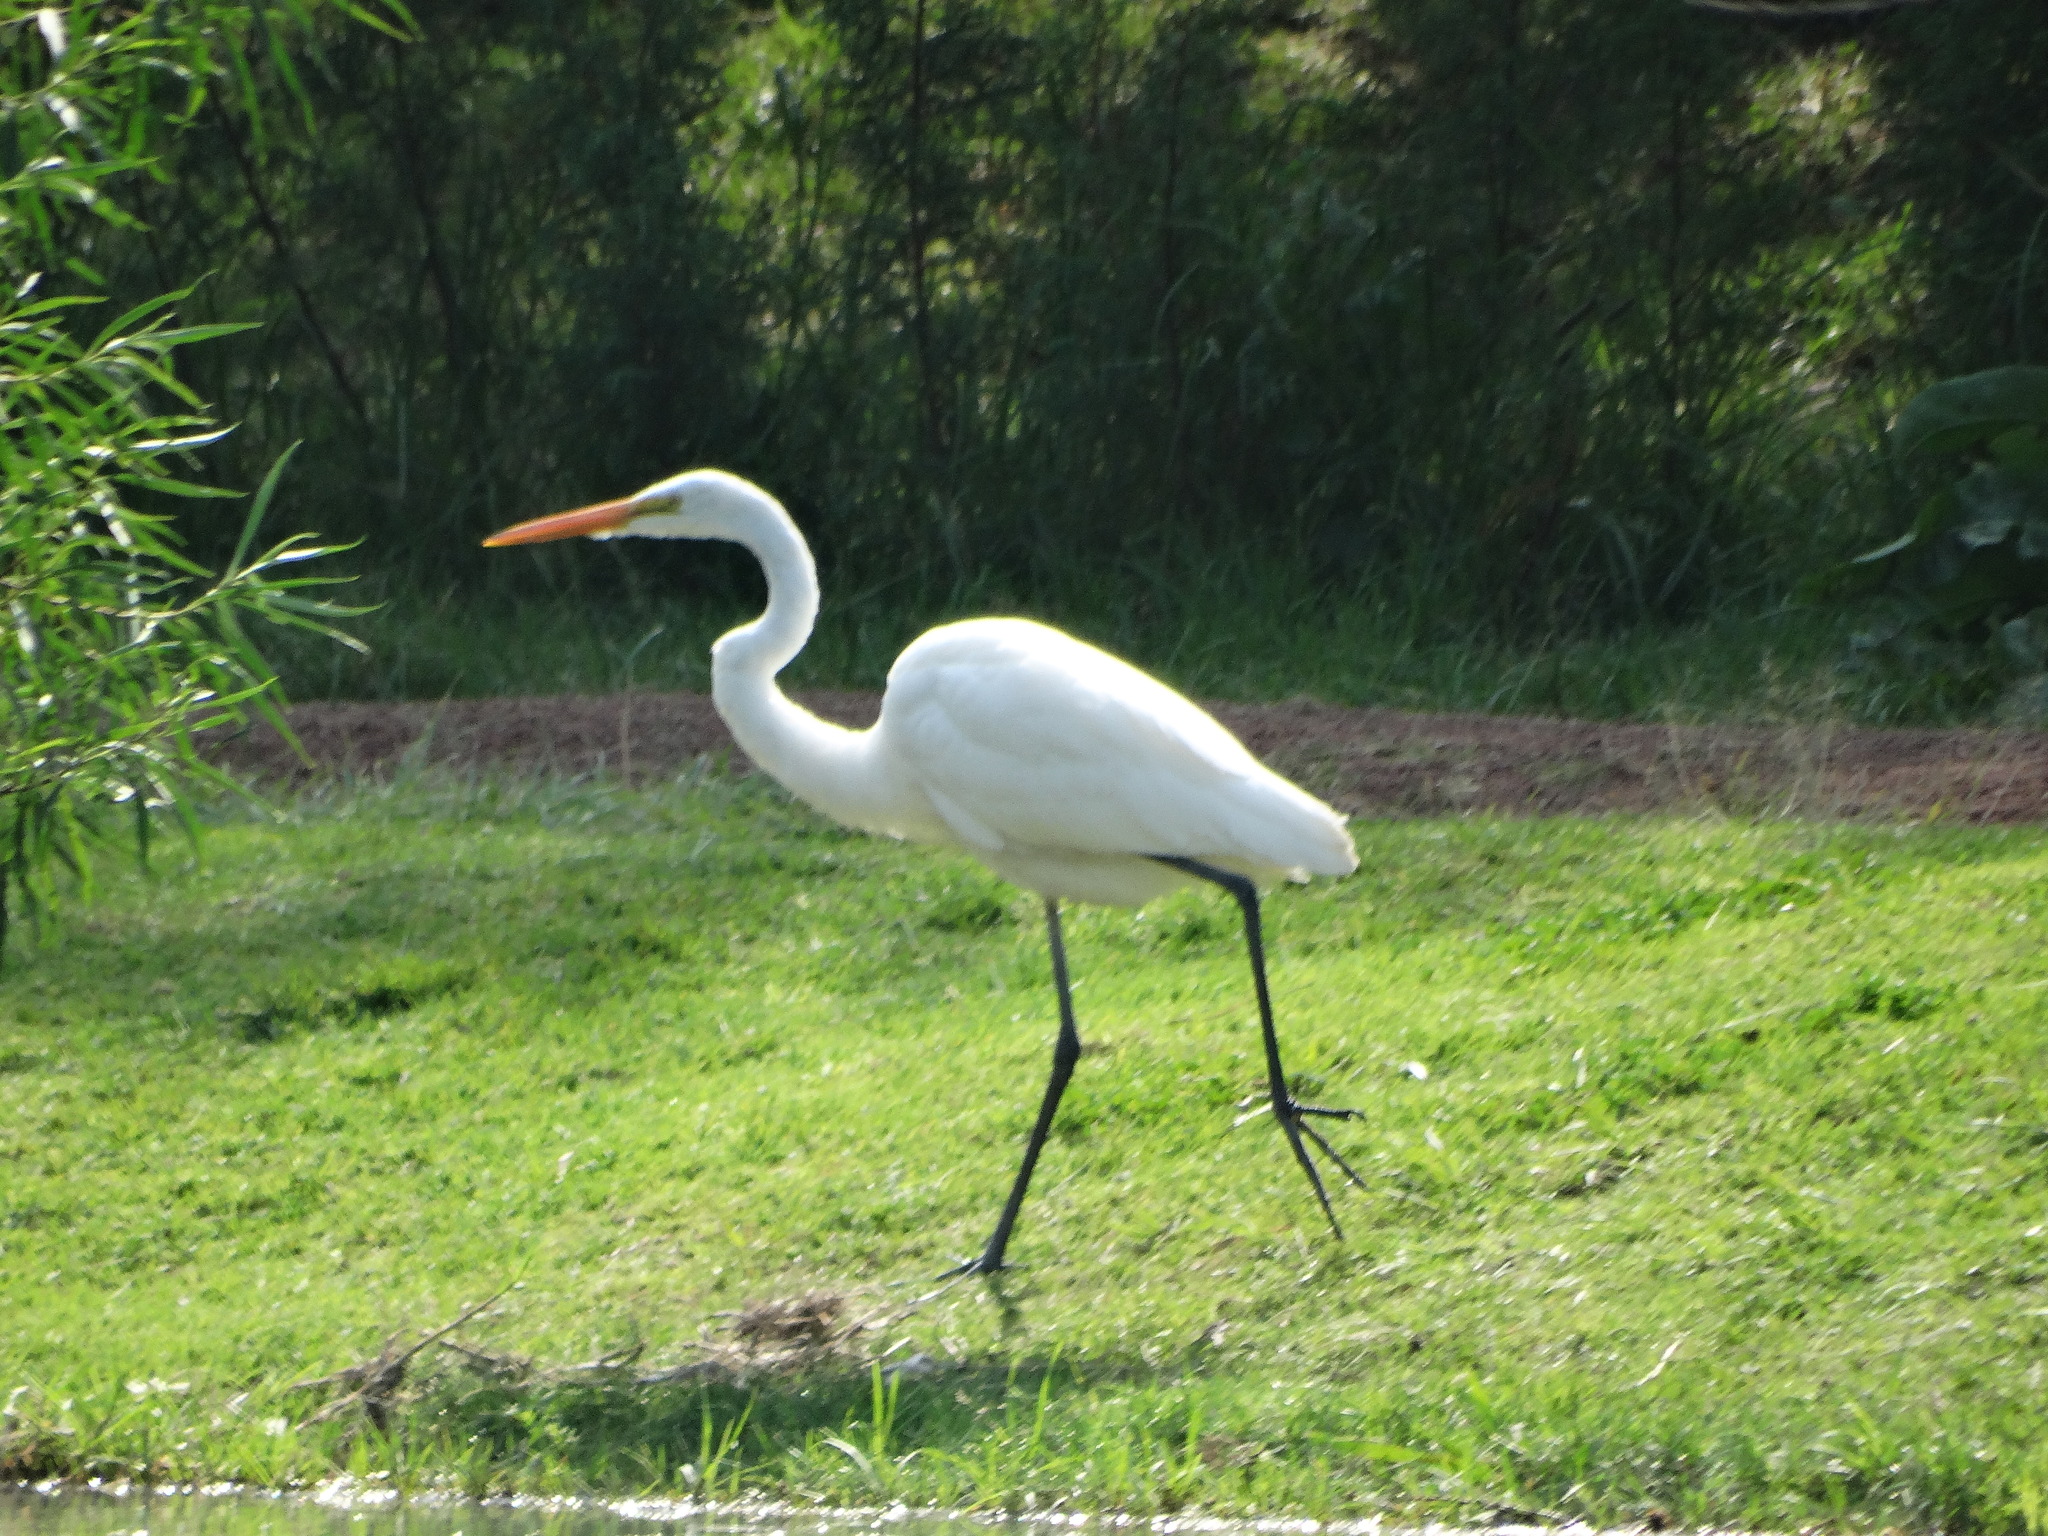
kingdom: Animalia
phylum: Chordata
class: Aves
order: Pelecaniformes
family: Ardeidae
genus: Ardea
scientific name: Ardea alba
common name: Great egret
